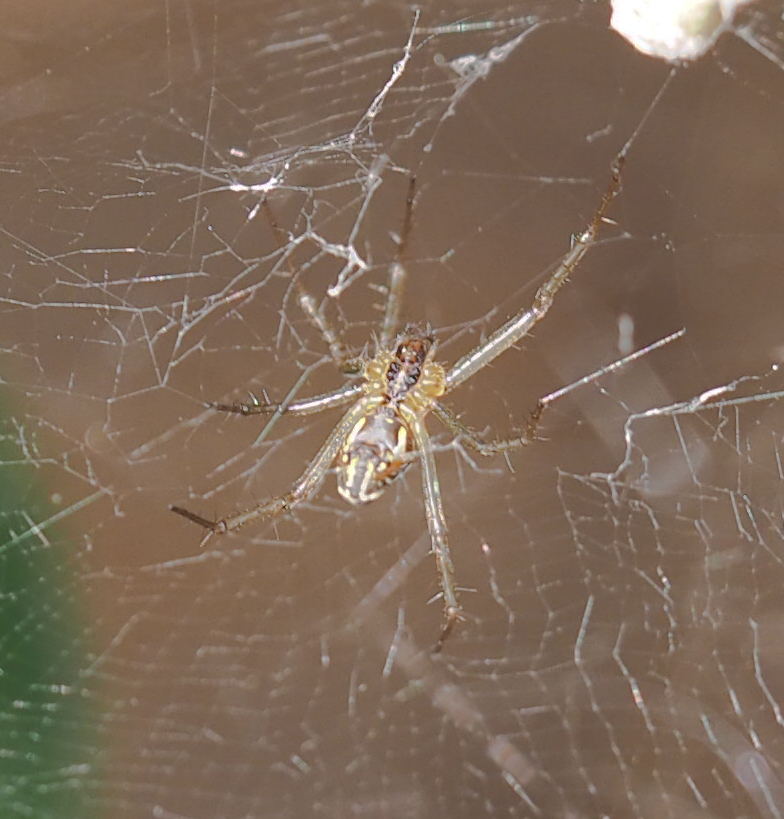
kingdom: Animalia
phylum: Arthropoda
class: Arachnida
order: Araneae
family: Araneidae
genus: Mecynogea
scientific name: Mecynogea lemniscata
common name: Orb weavers
